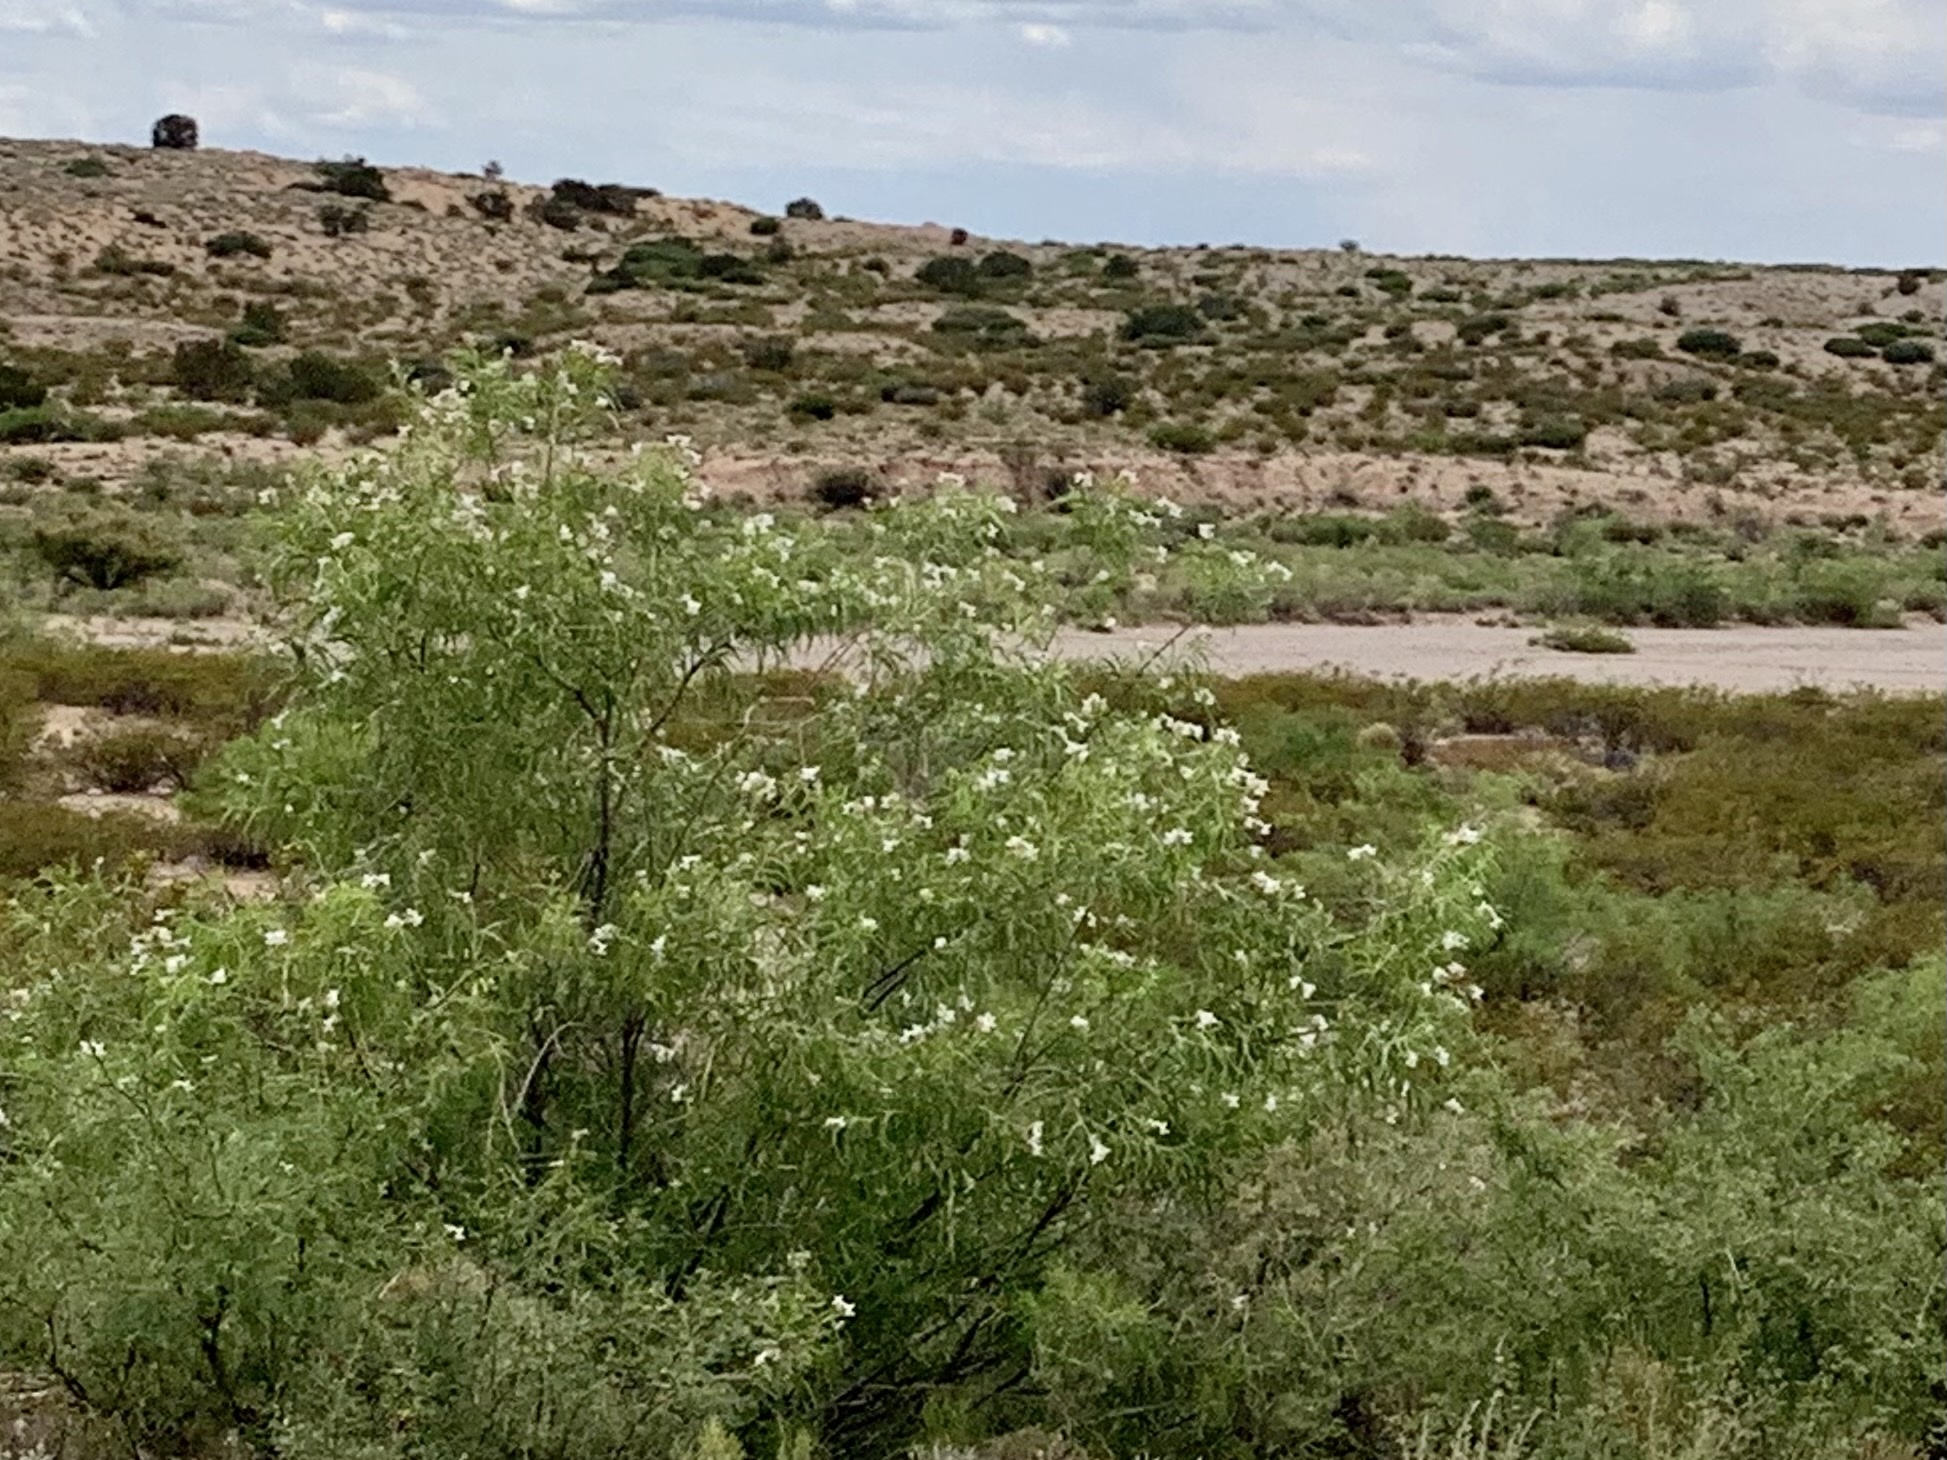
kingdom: Plantae
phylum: Tracheophyta
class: Magnoliopsida
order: Lamiales
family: Bignoniaceae
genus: Chilopsis
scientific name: Chilopsis linearis
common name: Desert-willow
